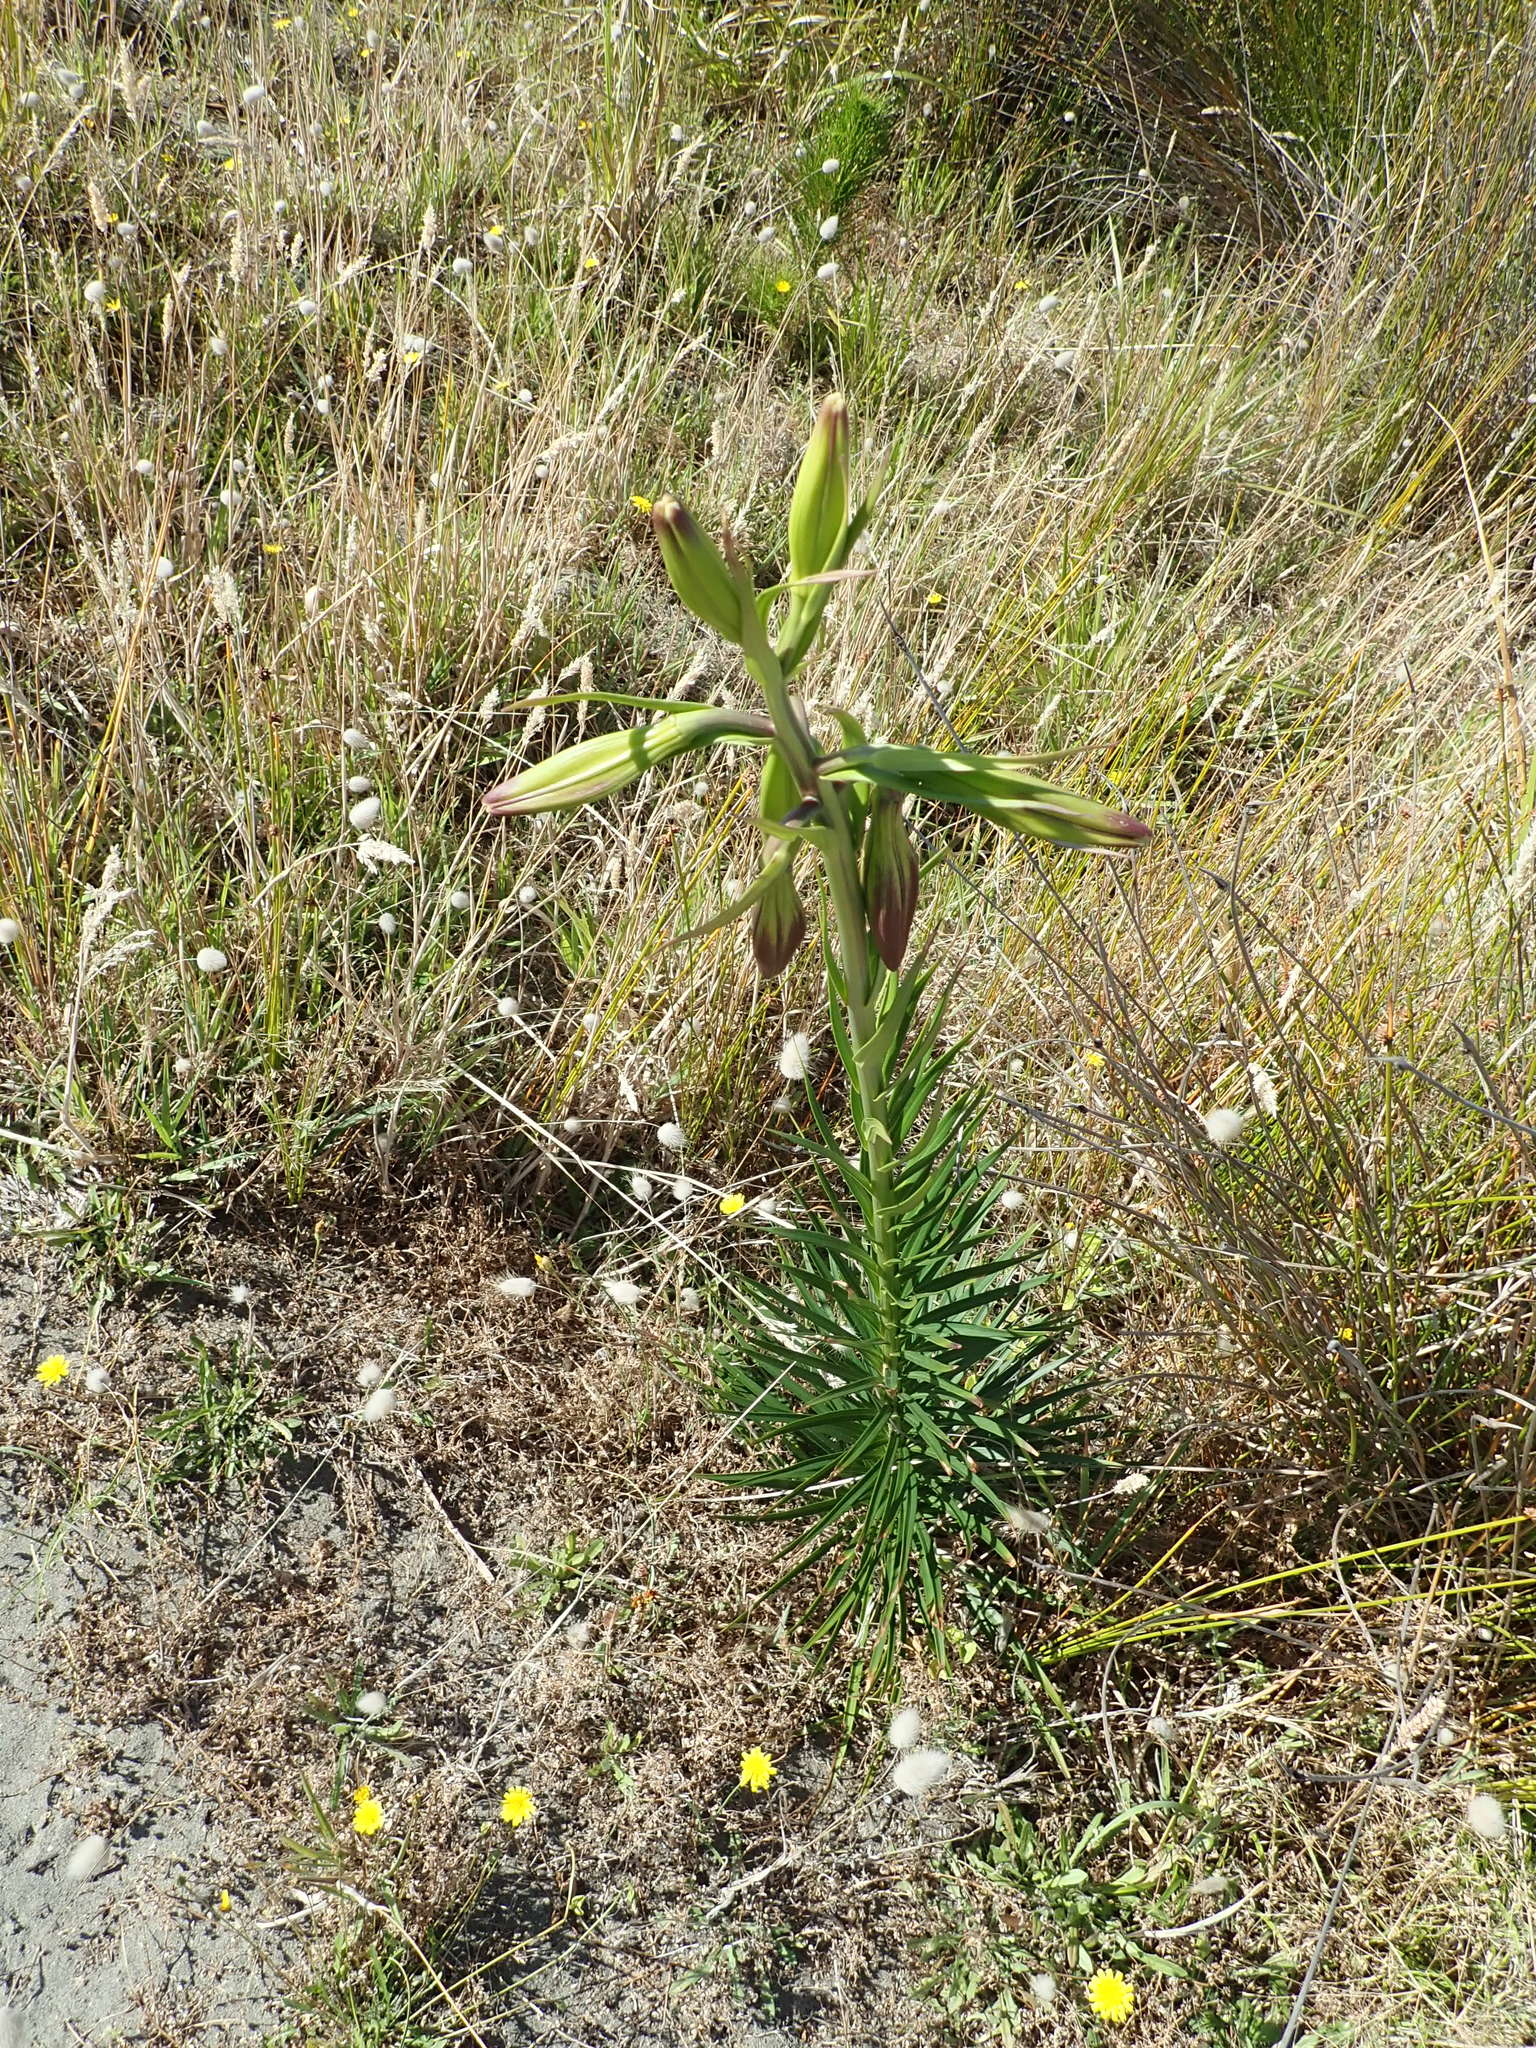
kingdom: Plantae
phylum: Tracheophyta
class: Liliopsida
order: Liliales
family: Liliaceae
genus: Lilium
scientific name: Lilium formosanum
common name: Formosa lily
